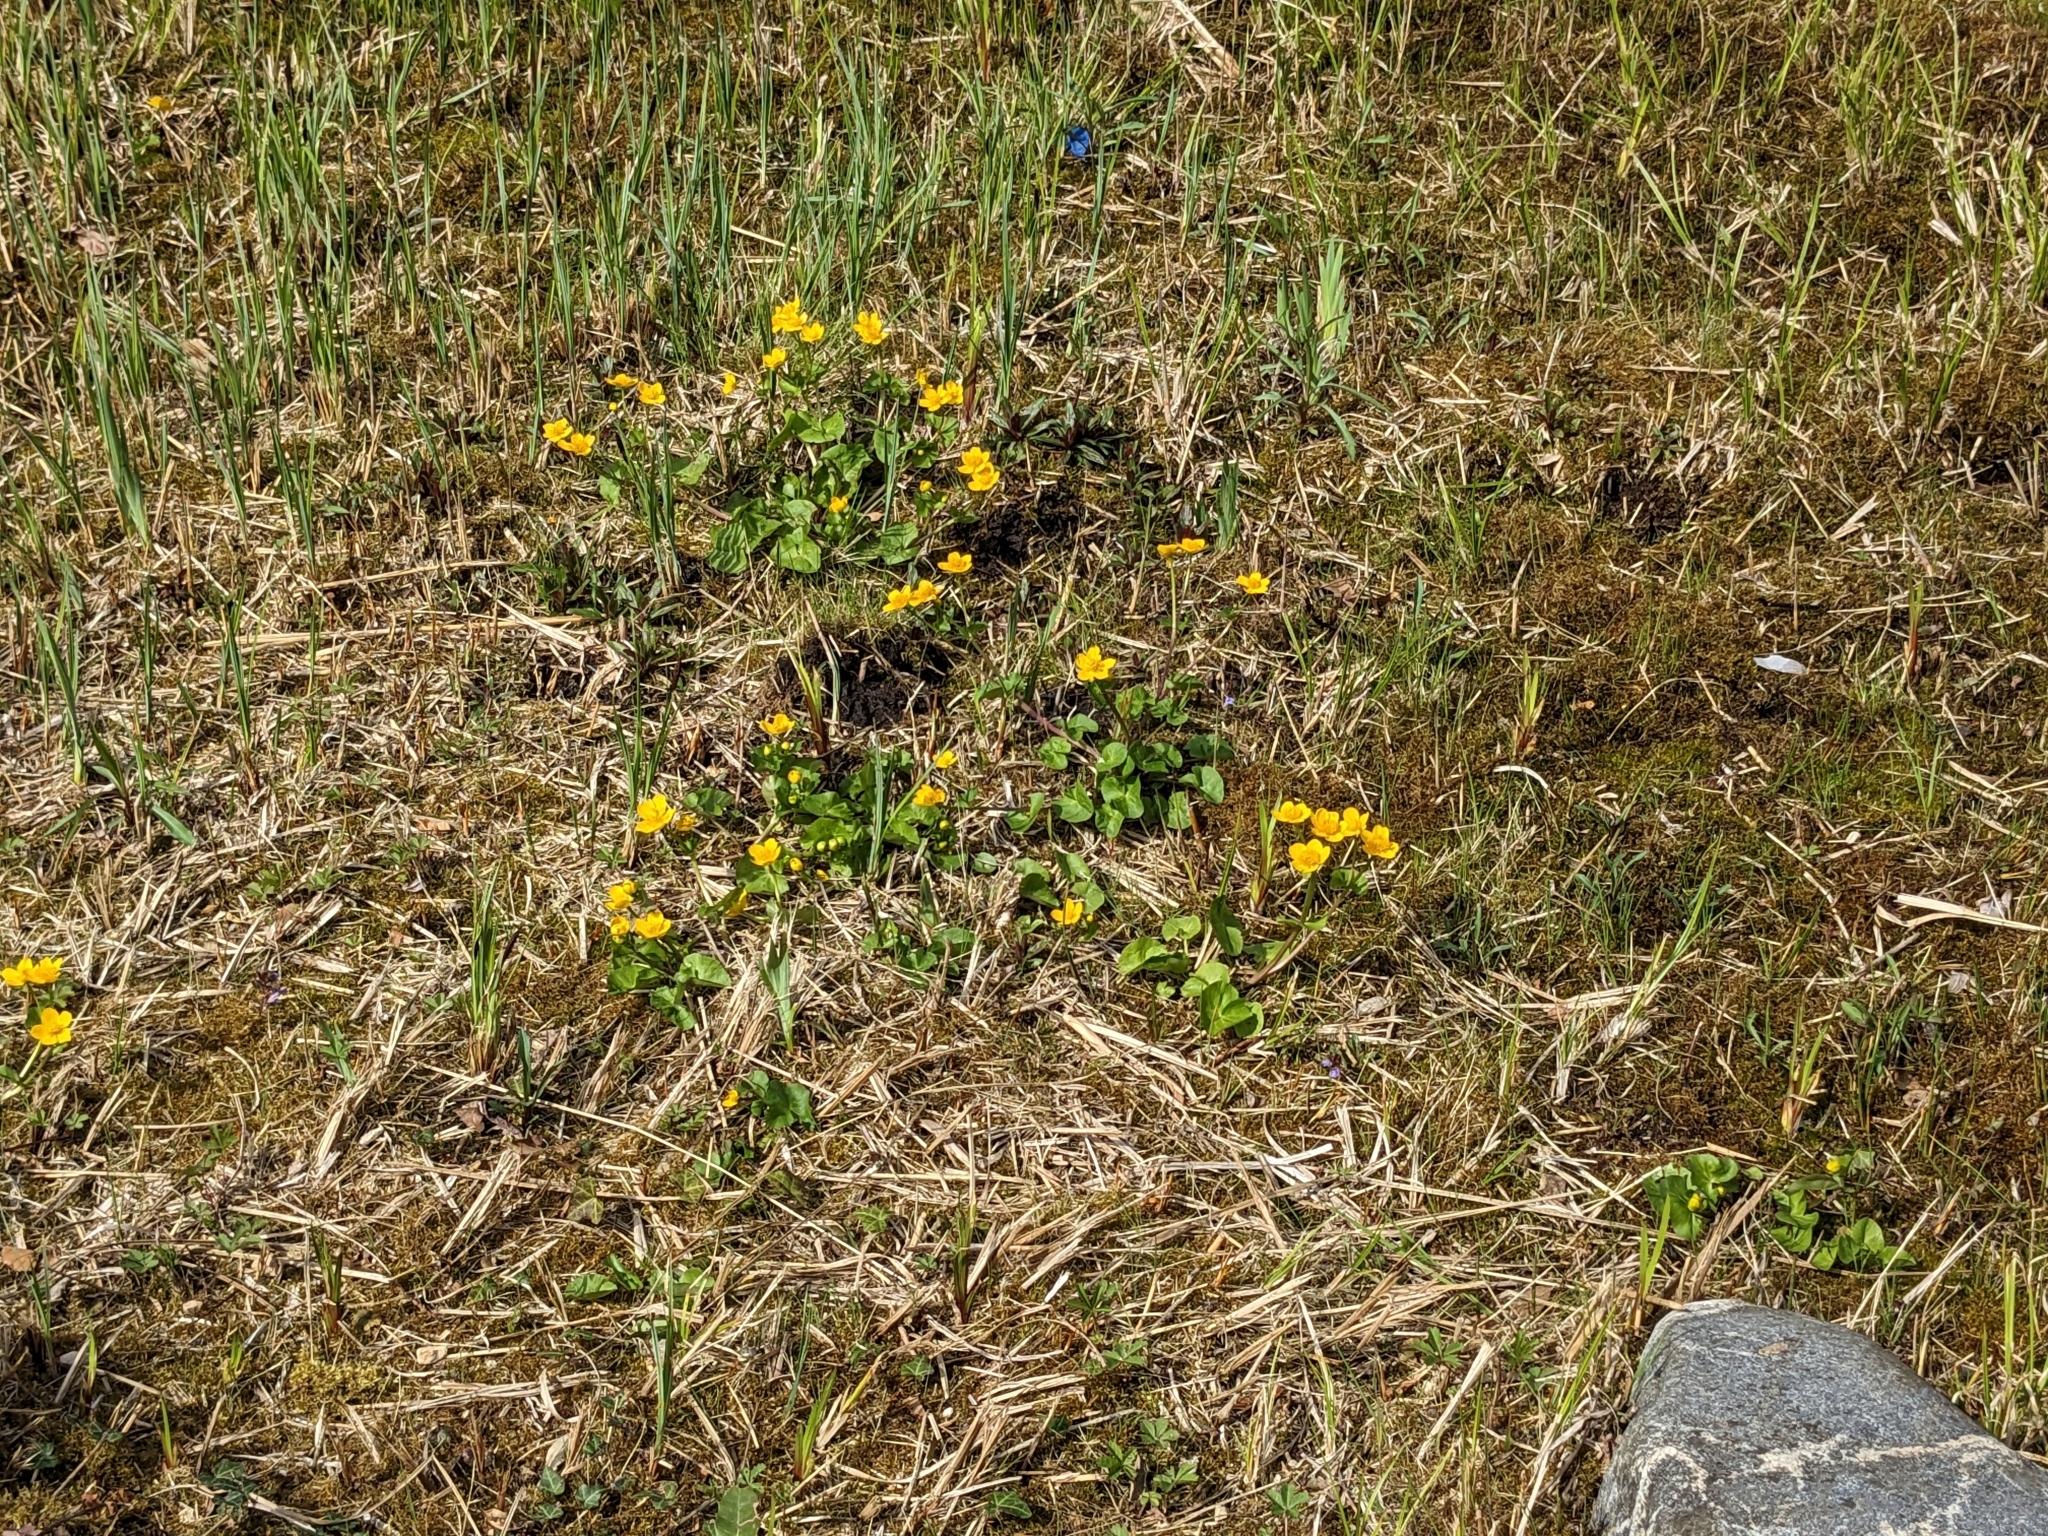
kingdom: Plantae
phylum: Tracheophyta
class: Magnoliopsida
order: Ranunculales
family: Ranunculaceae
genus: Caltha
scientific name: Caltha palustris
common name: Marsh marigold
